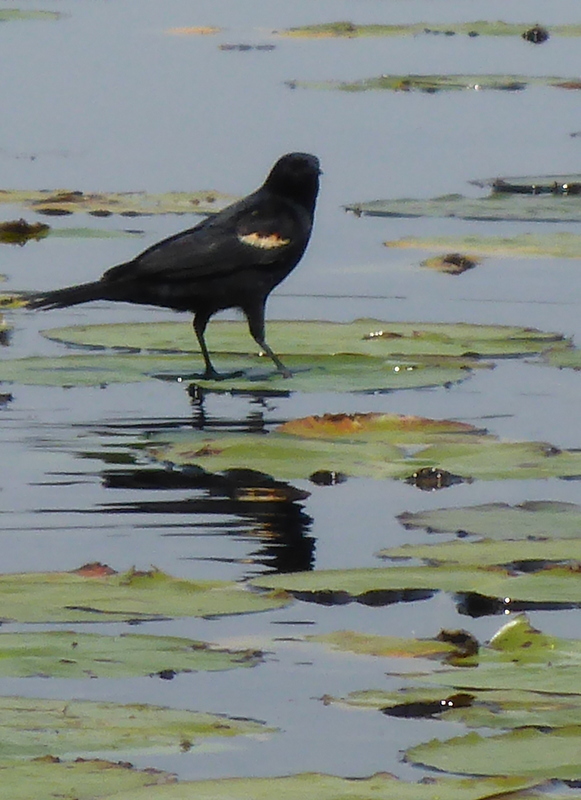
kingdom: Animalia
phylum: Chordata
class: Aves
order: Passeriformes
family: Icteridae
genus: Agelaius
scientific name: Agelaius phoeniceus
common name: Red-winged blackbird
